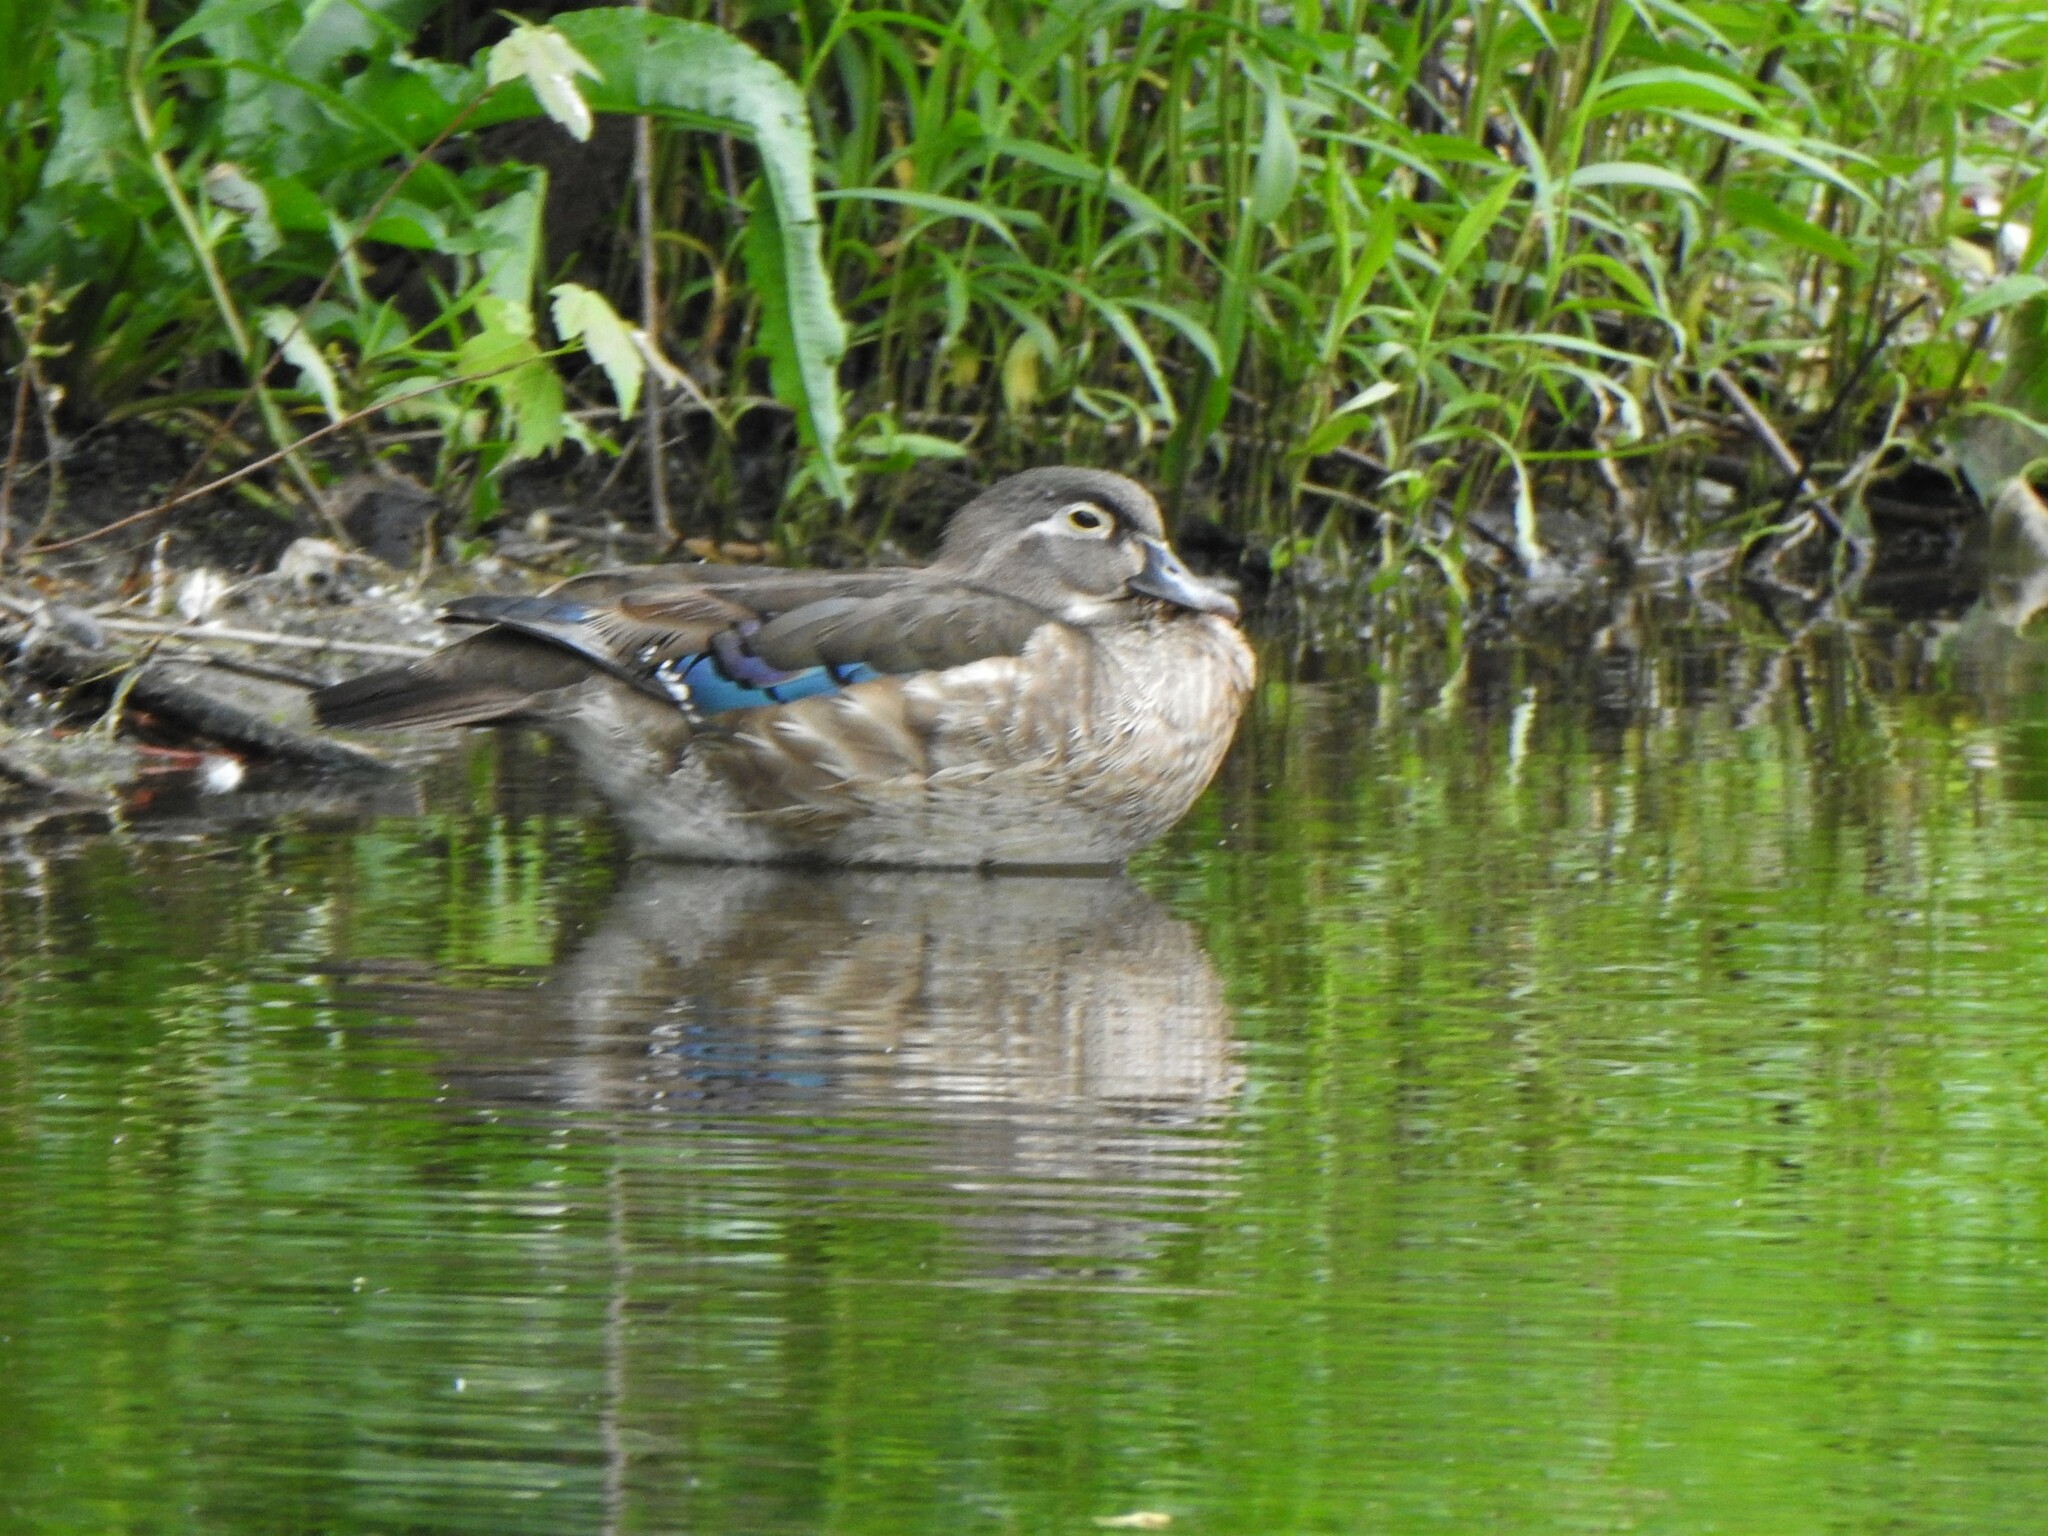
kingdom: Animalia
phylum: Chordata
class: Aves
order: Anseriformes
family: Anatidae
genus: Aix
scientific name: Aix sponsa
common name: Wood duck
